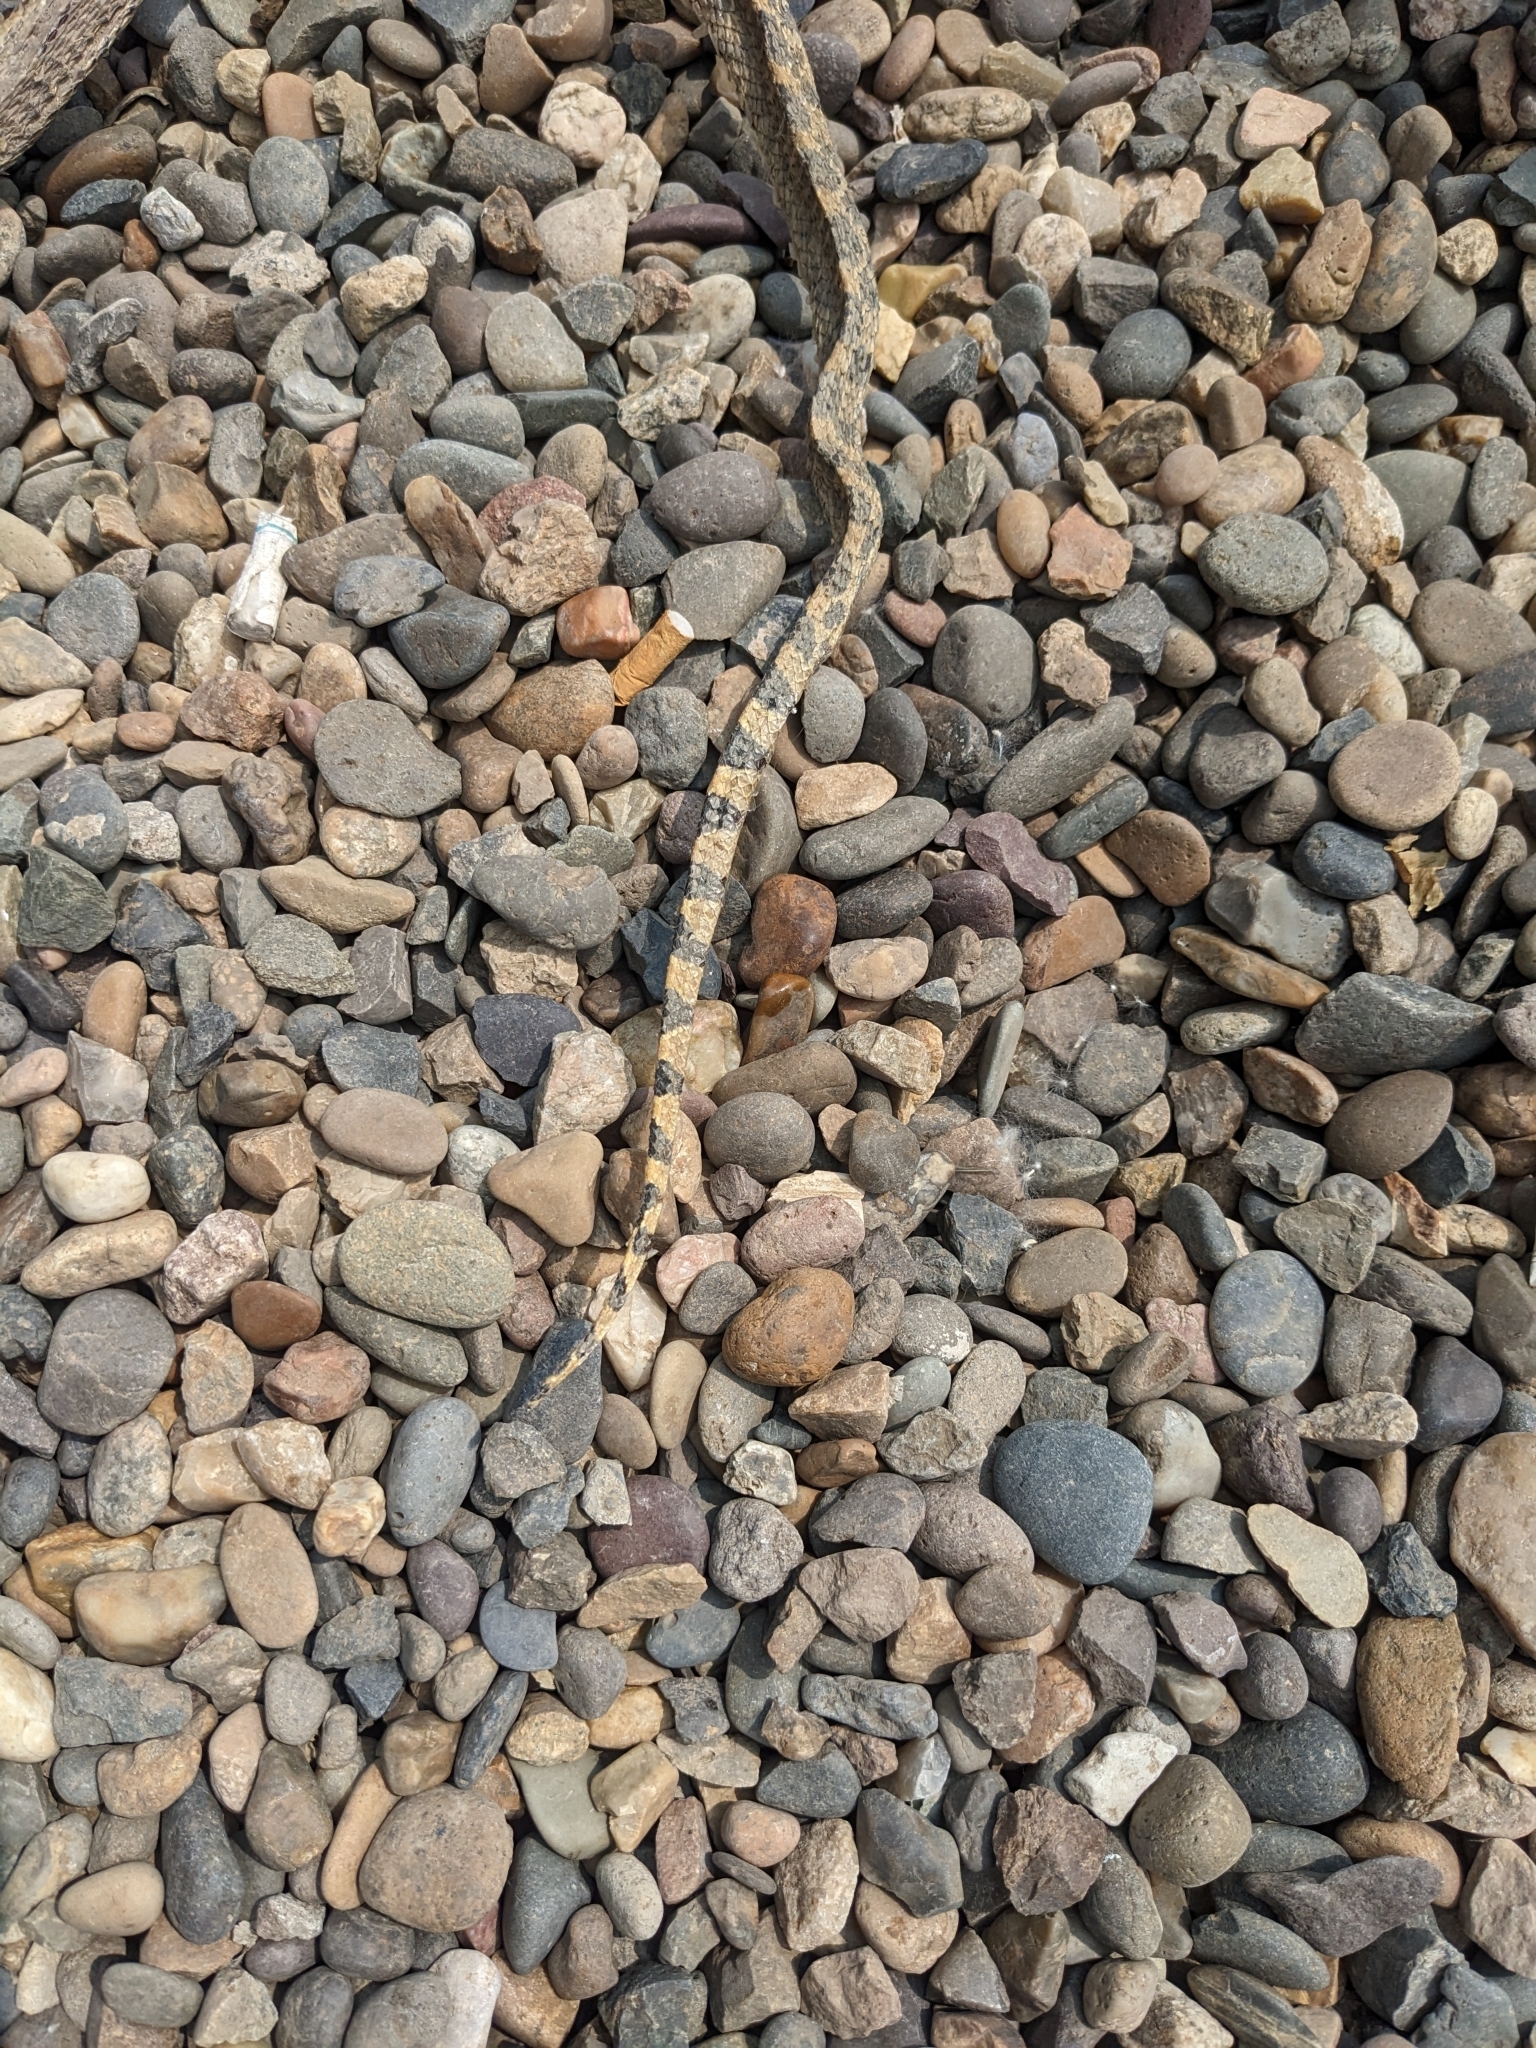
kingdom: Animalia
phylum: Chordata
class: Squamata
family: Colubridae
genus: Pituophis
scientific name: Pituophis catenifer
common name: Gopher snake
